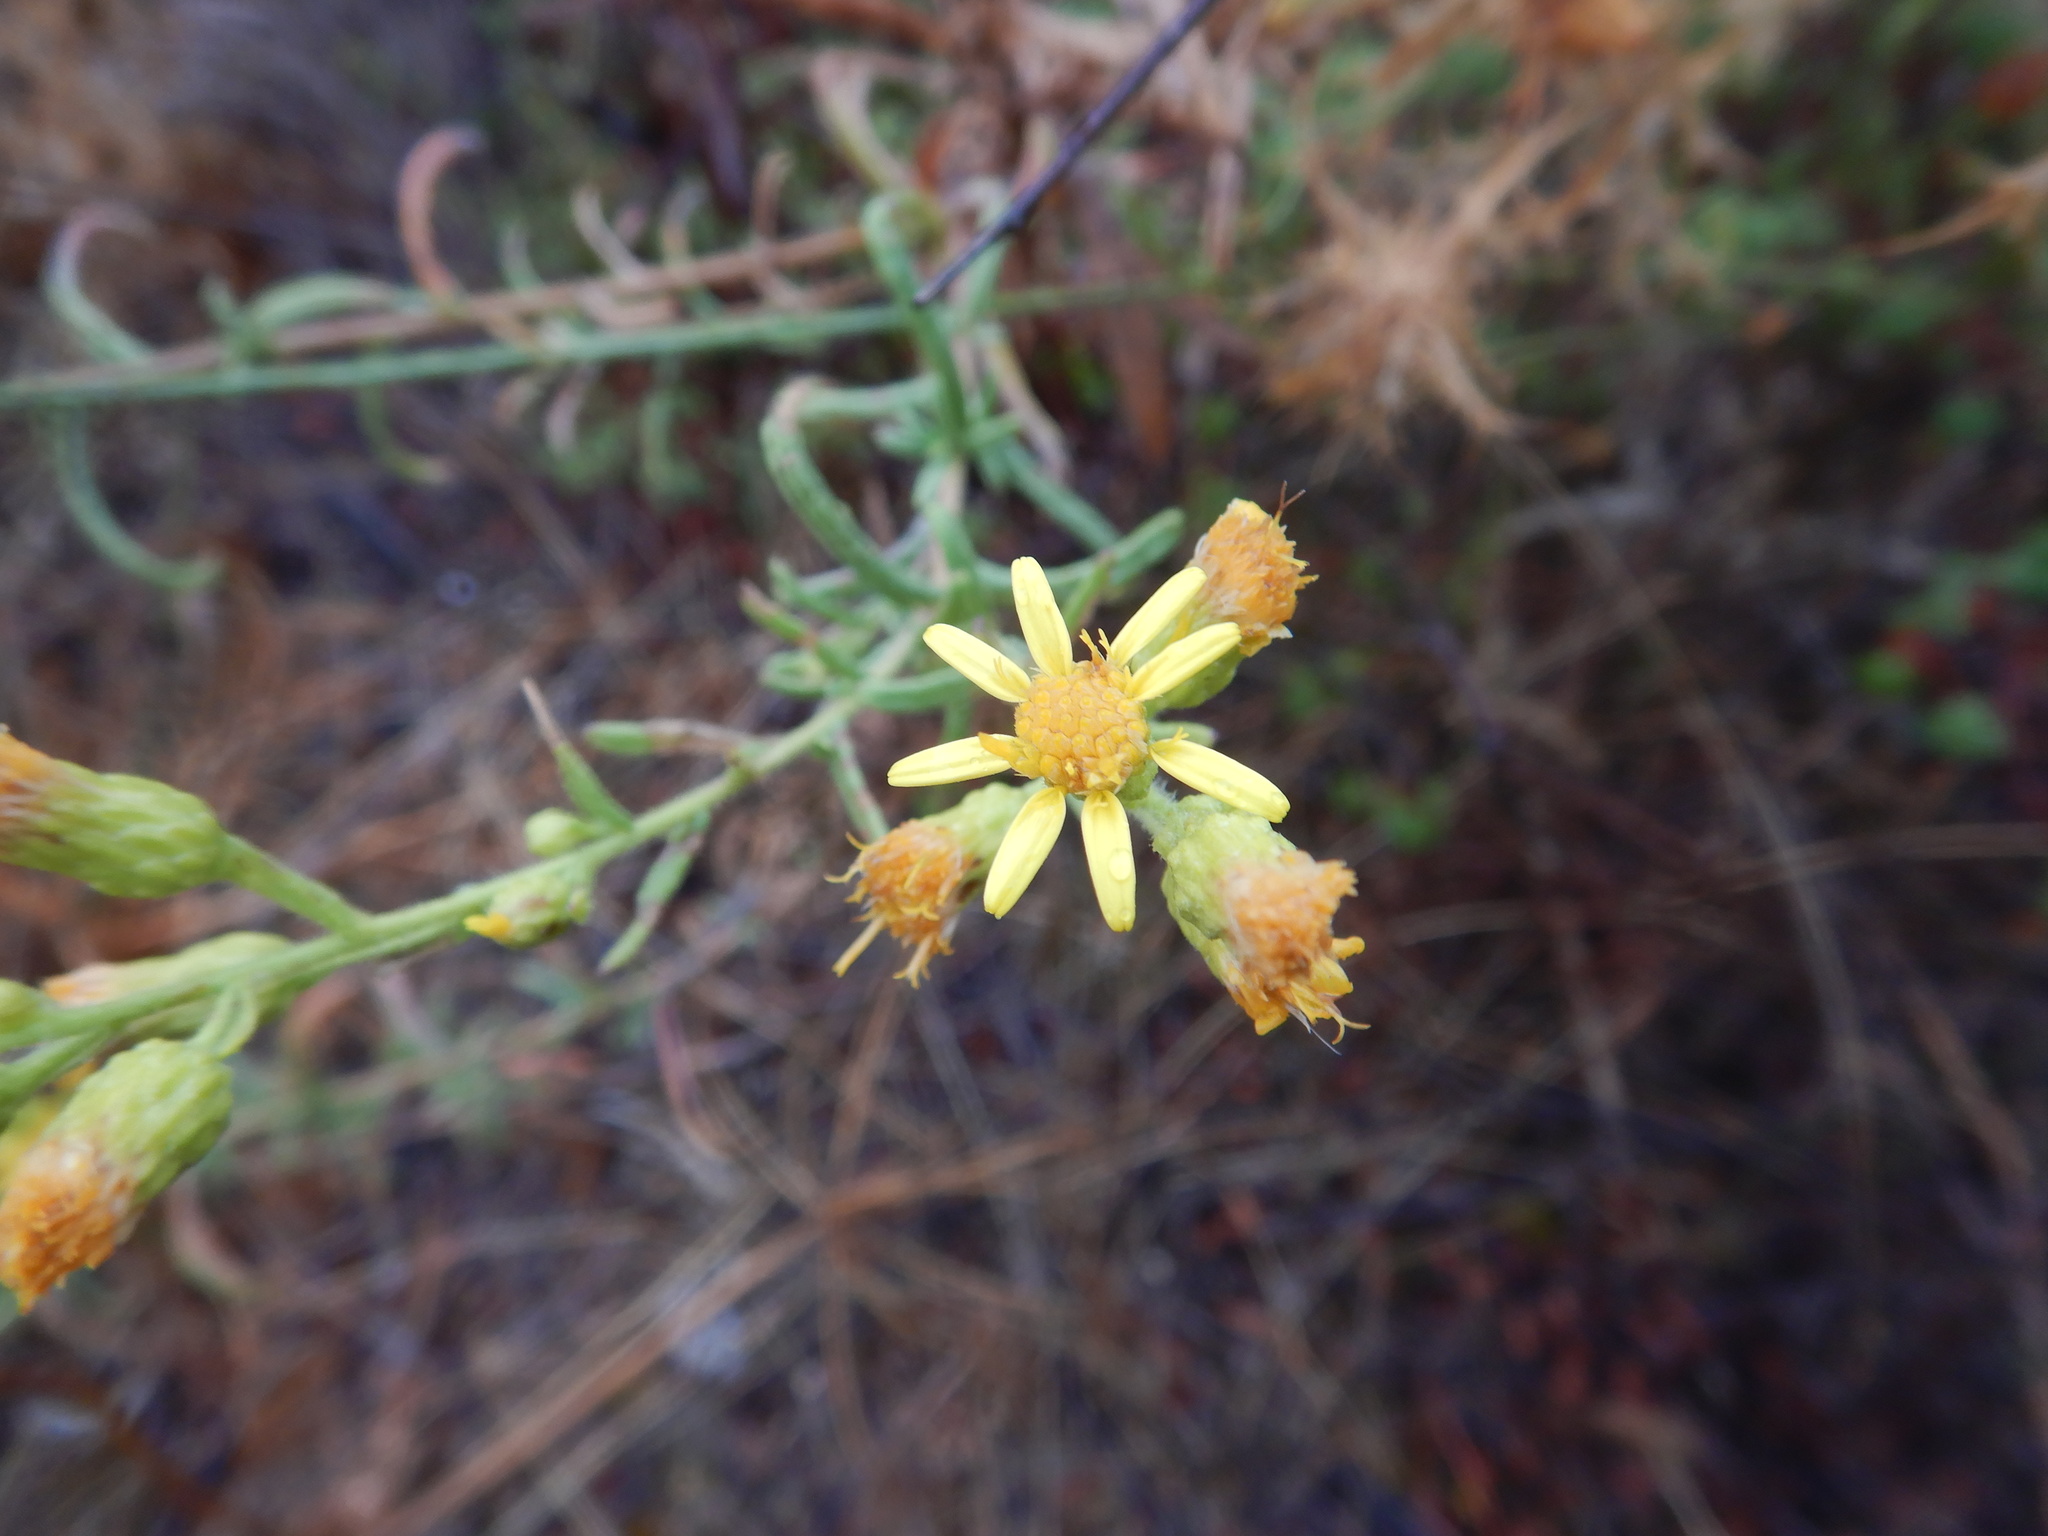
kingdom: Plantae
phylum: Tracheophyta
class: Magnoliopsida
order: Asterales
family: Asteraceae
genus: Dittrichia
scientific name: Dittrichia viscosa
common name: Woody fleabane
